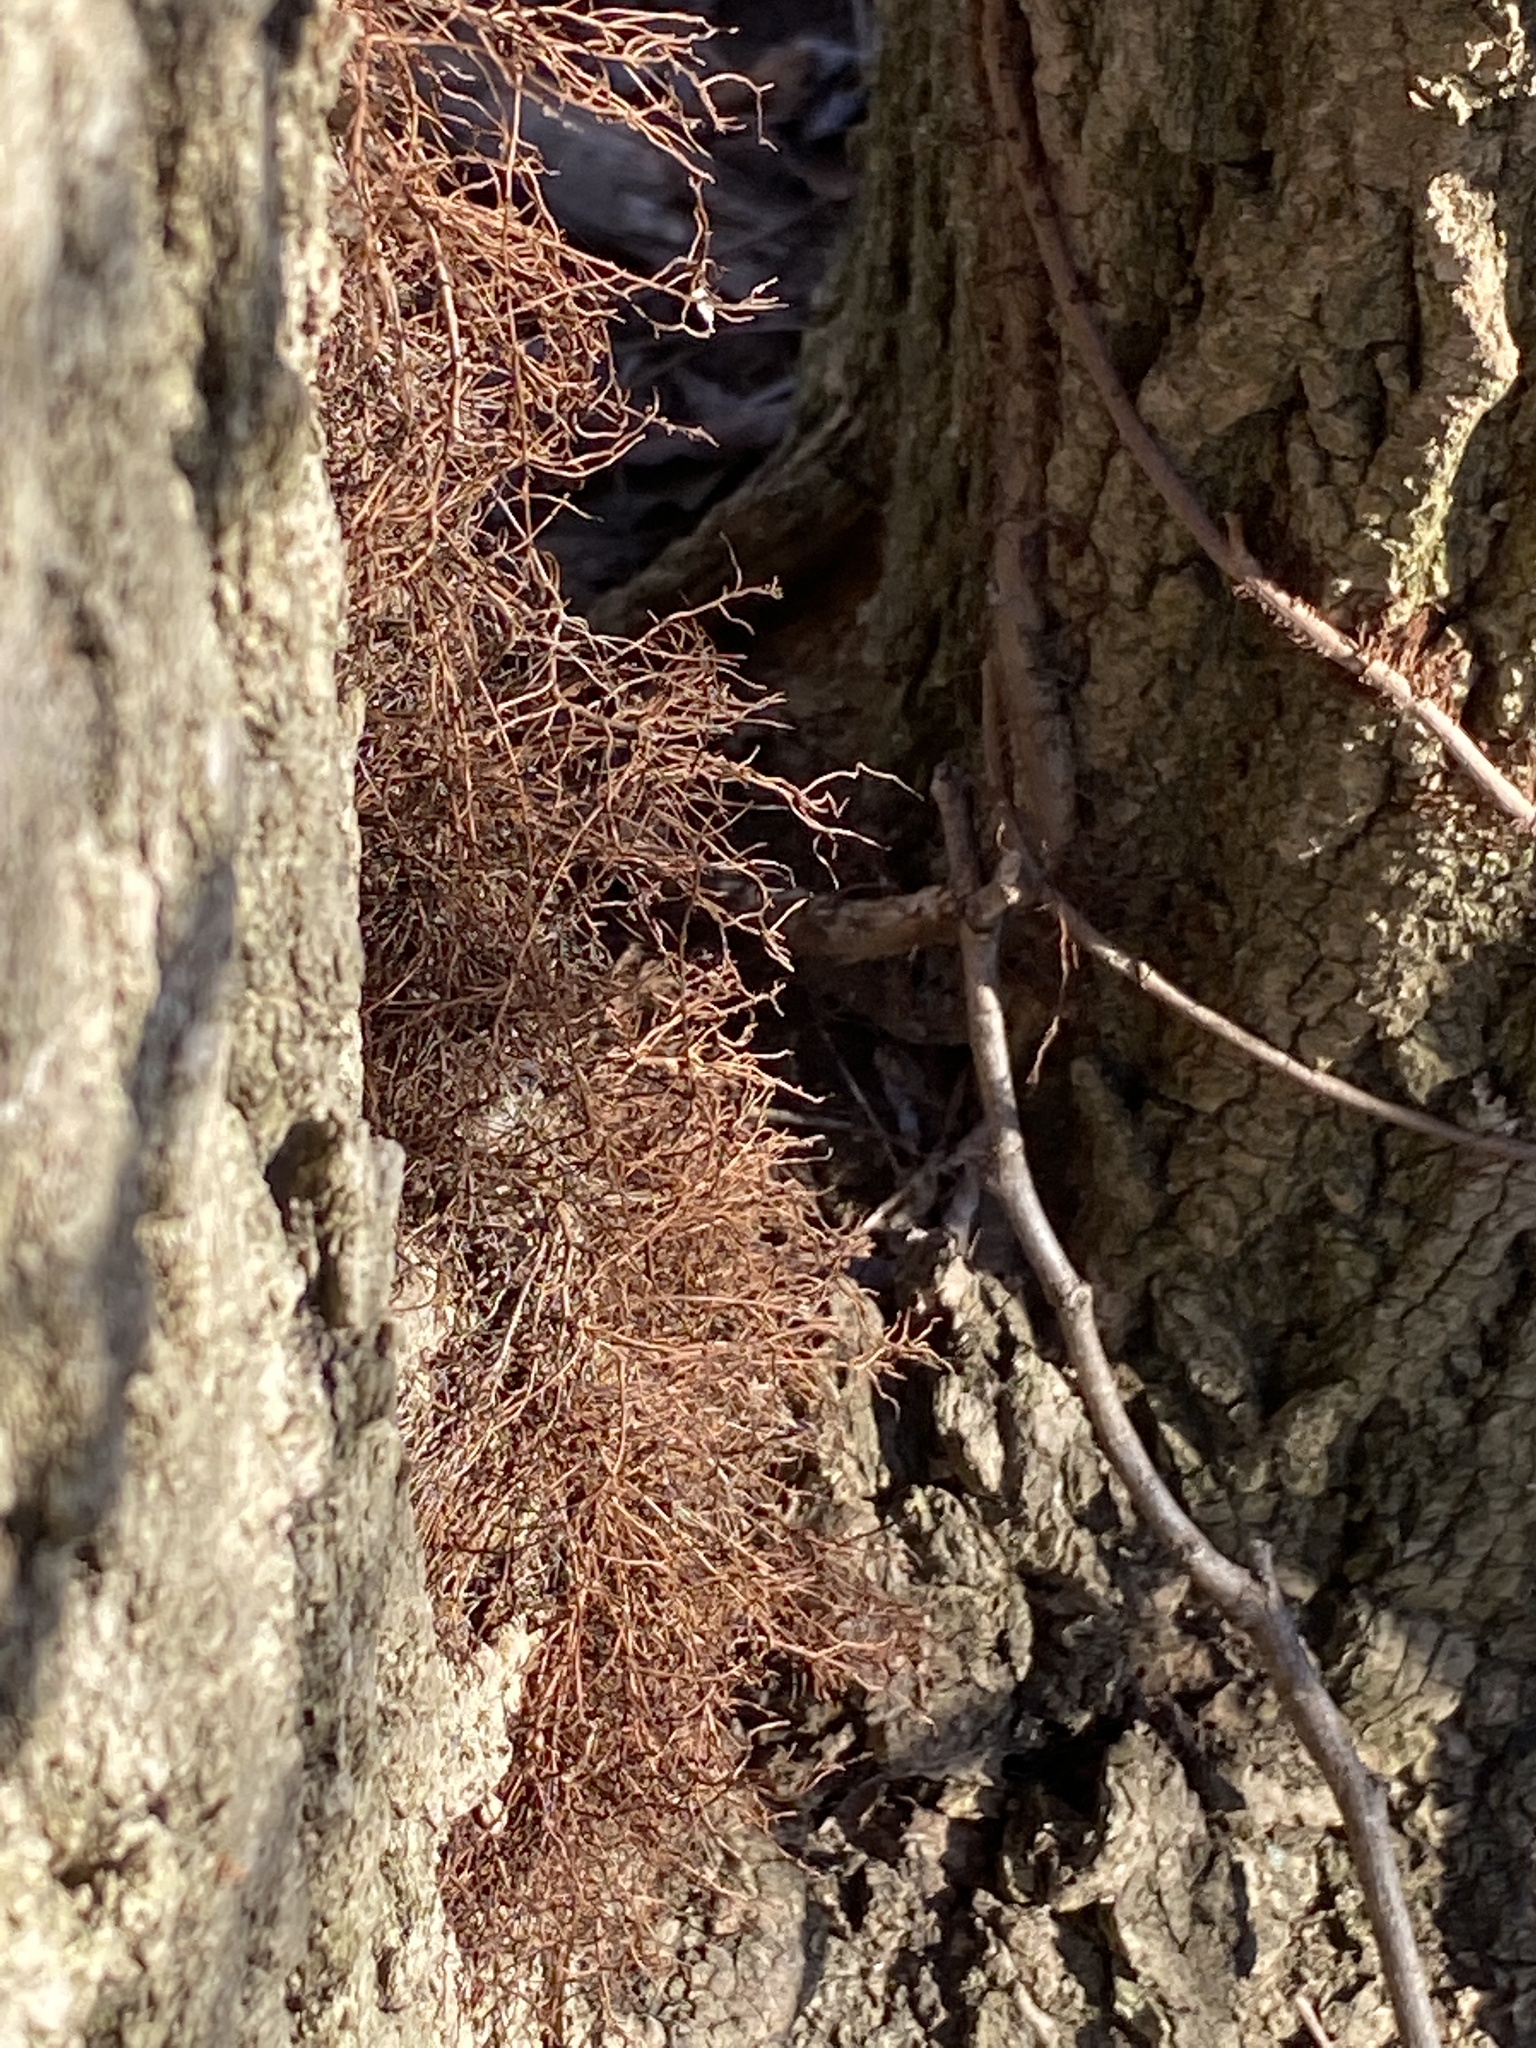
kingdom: Plantae
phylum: Tracheophyta
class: Magnoliopsida
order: Sapindales
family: Anacardiaceae
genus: Toxicodendron
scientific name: Toxicodendron radicans
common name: Poison ivy
